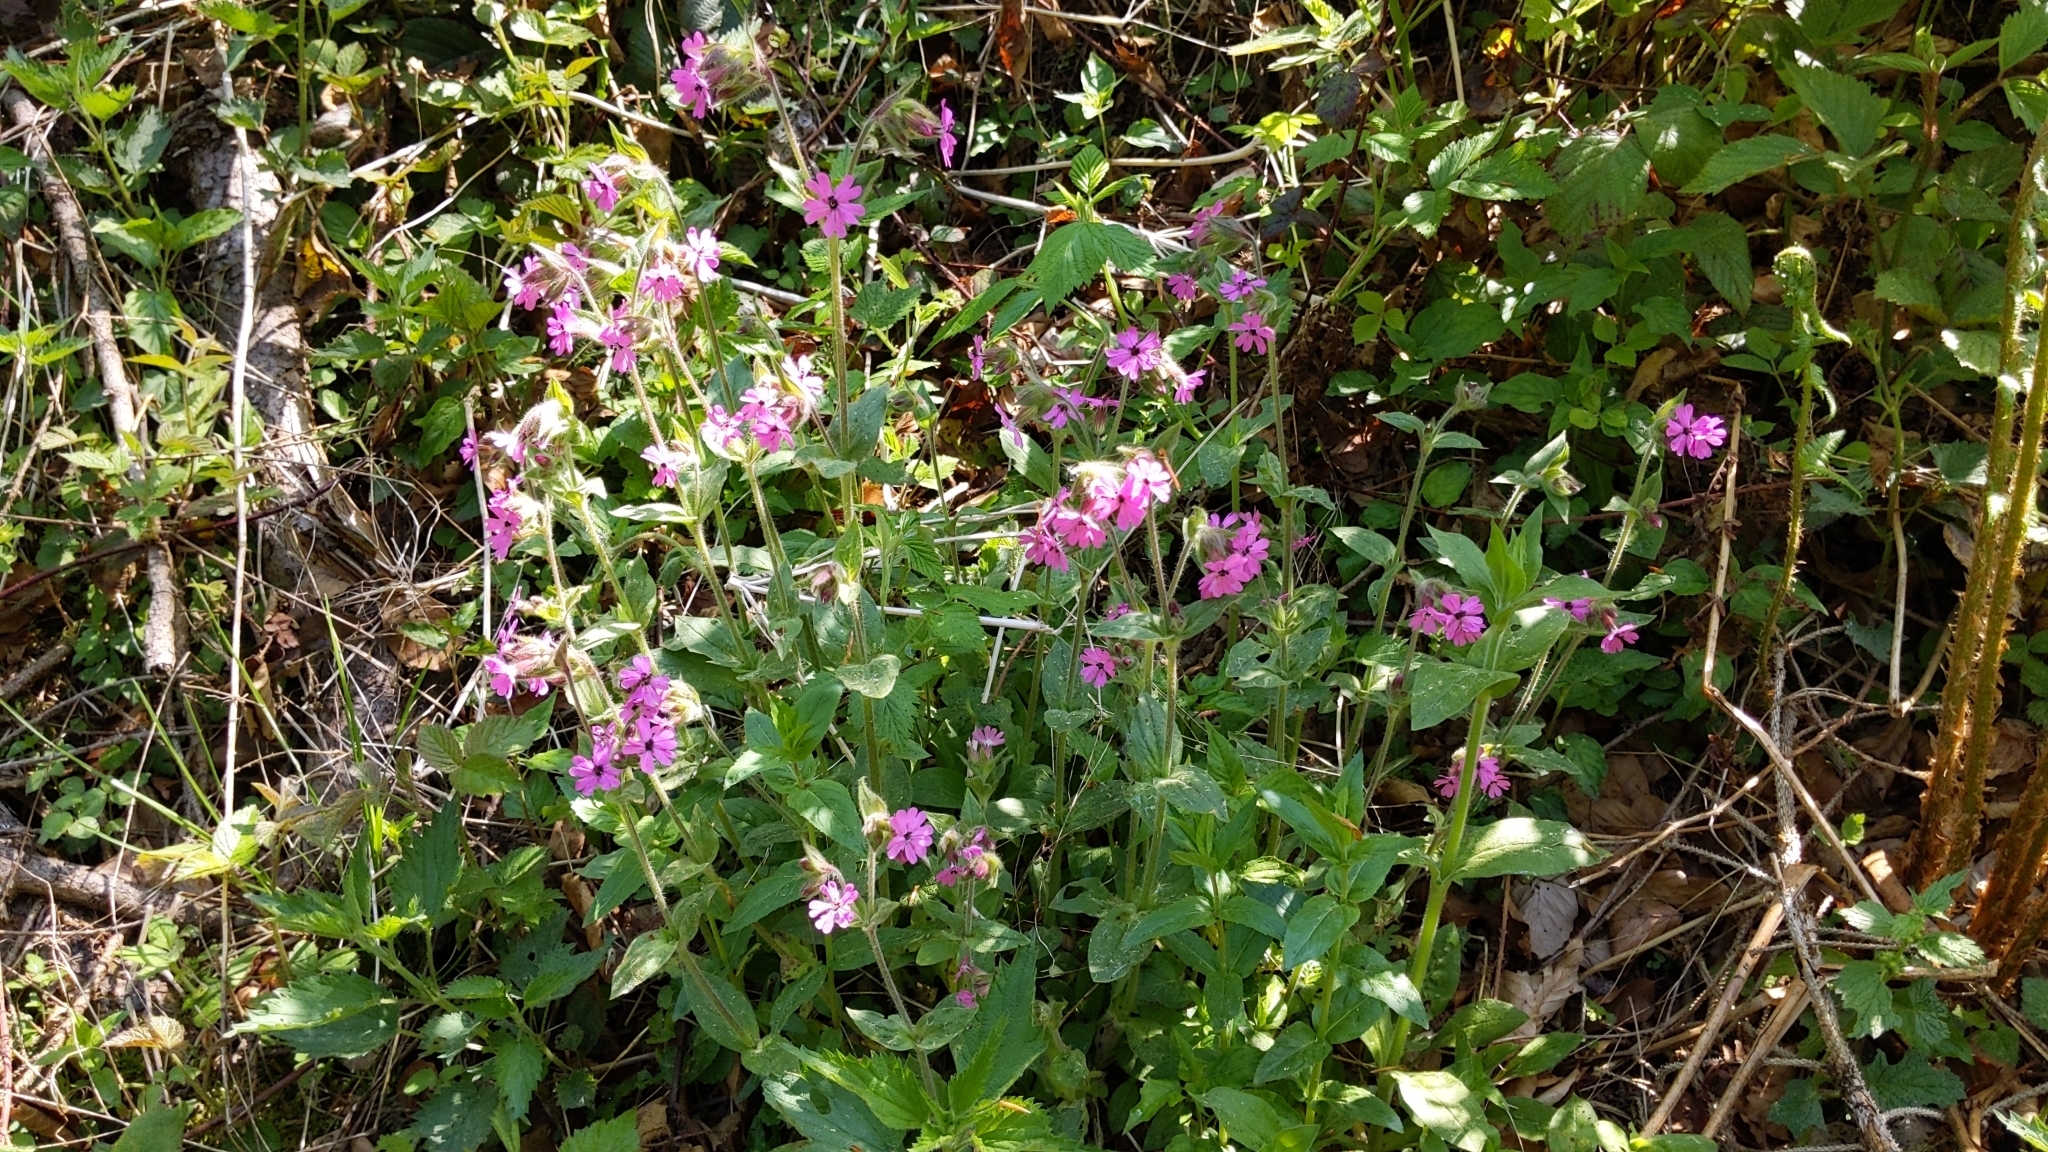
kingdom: Plantae
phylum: Tracheophyta
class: Magnoliopsida
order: Caryophyllales
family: Caryophyllaceae
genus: Silene
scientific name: Silene dioica
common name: Red campion
